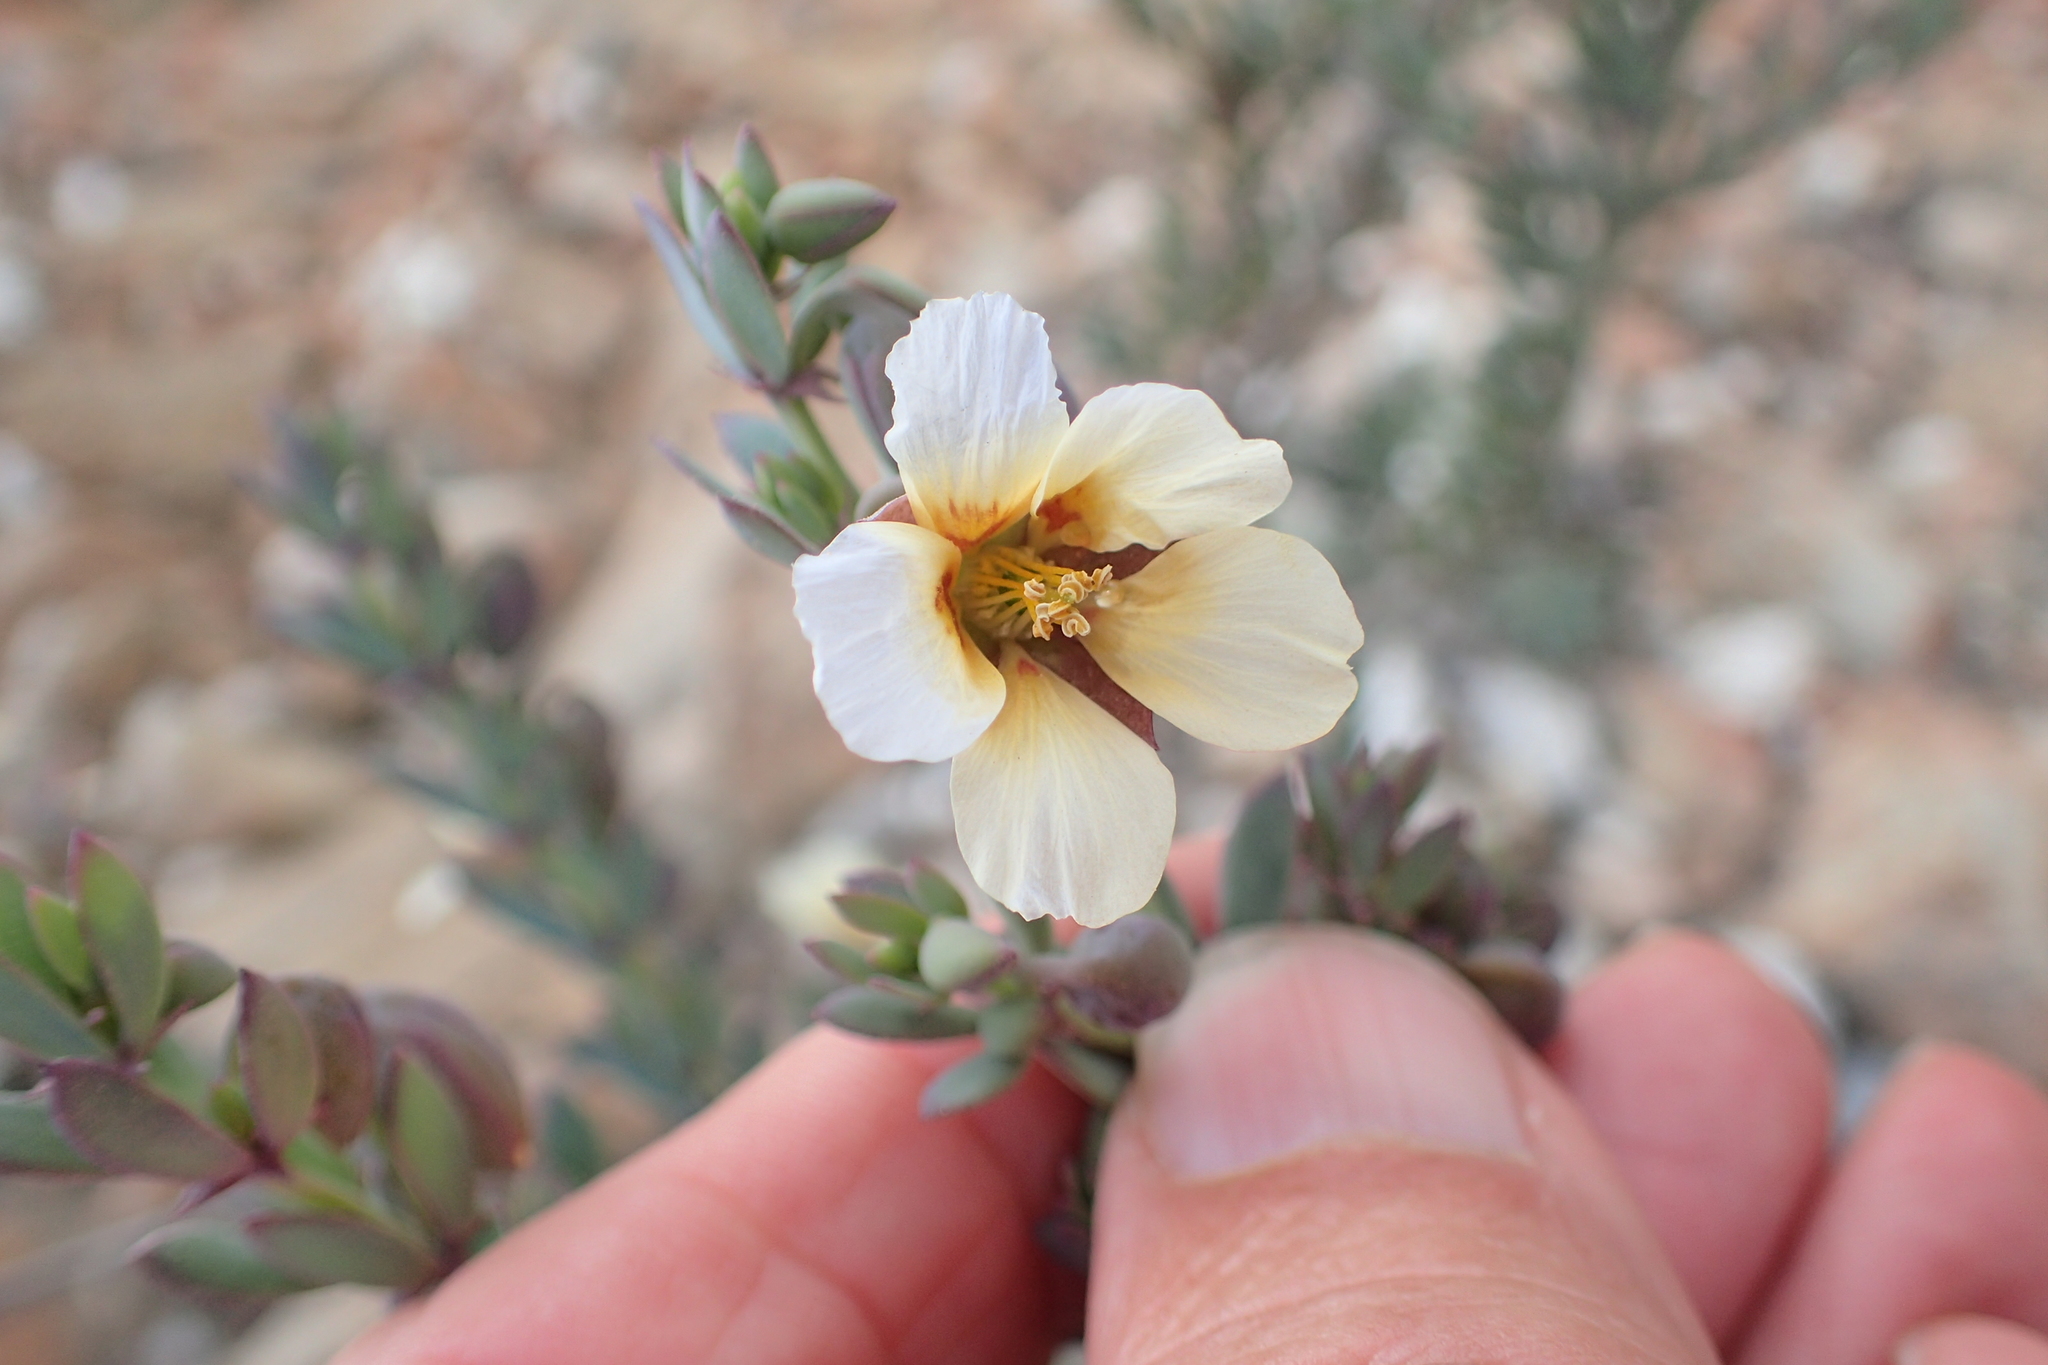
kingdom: Plantae
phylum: Tracheophyta
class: Magnoliopsida
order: Zygophyllales
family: Zygophyllaceae
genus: Roepera
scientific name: Roepera fulva
